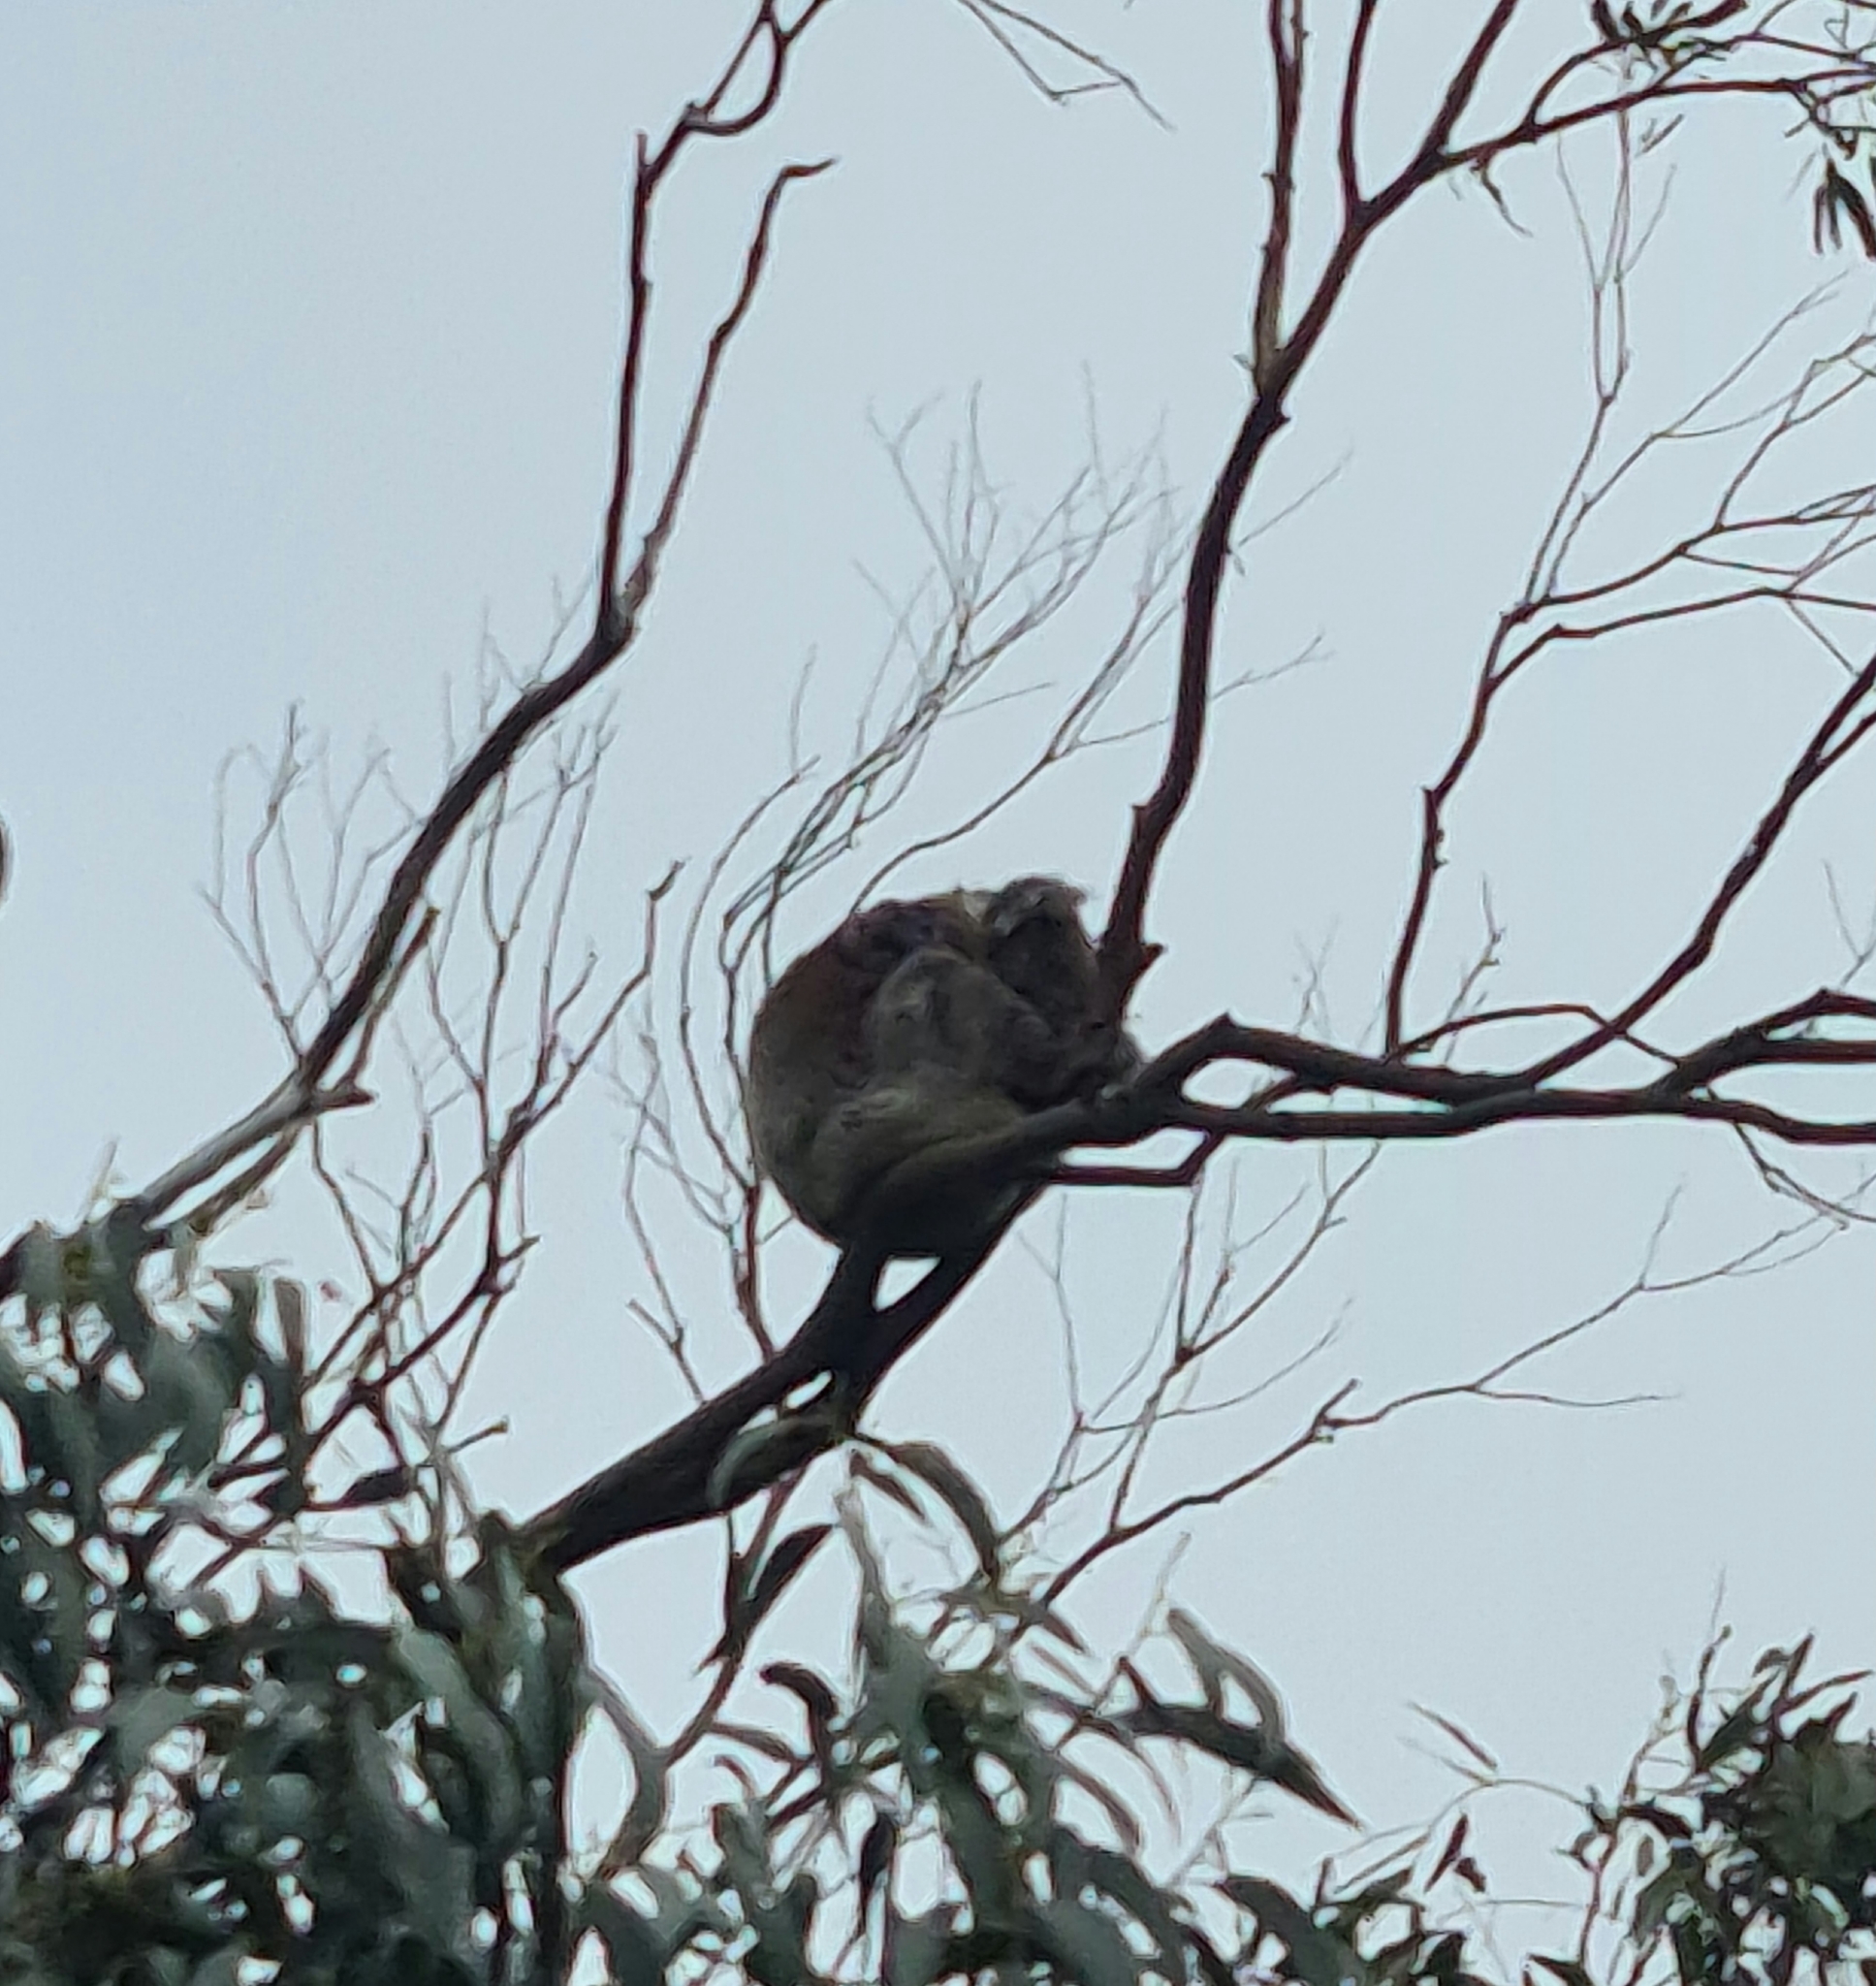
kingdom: Animalia
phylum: Chordata
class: Mammalia
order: Diprotodontia
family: Phascolarctidae
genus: Phascolarctos
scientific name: Phascolarctos cinereus
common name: Koala
